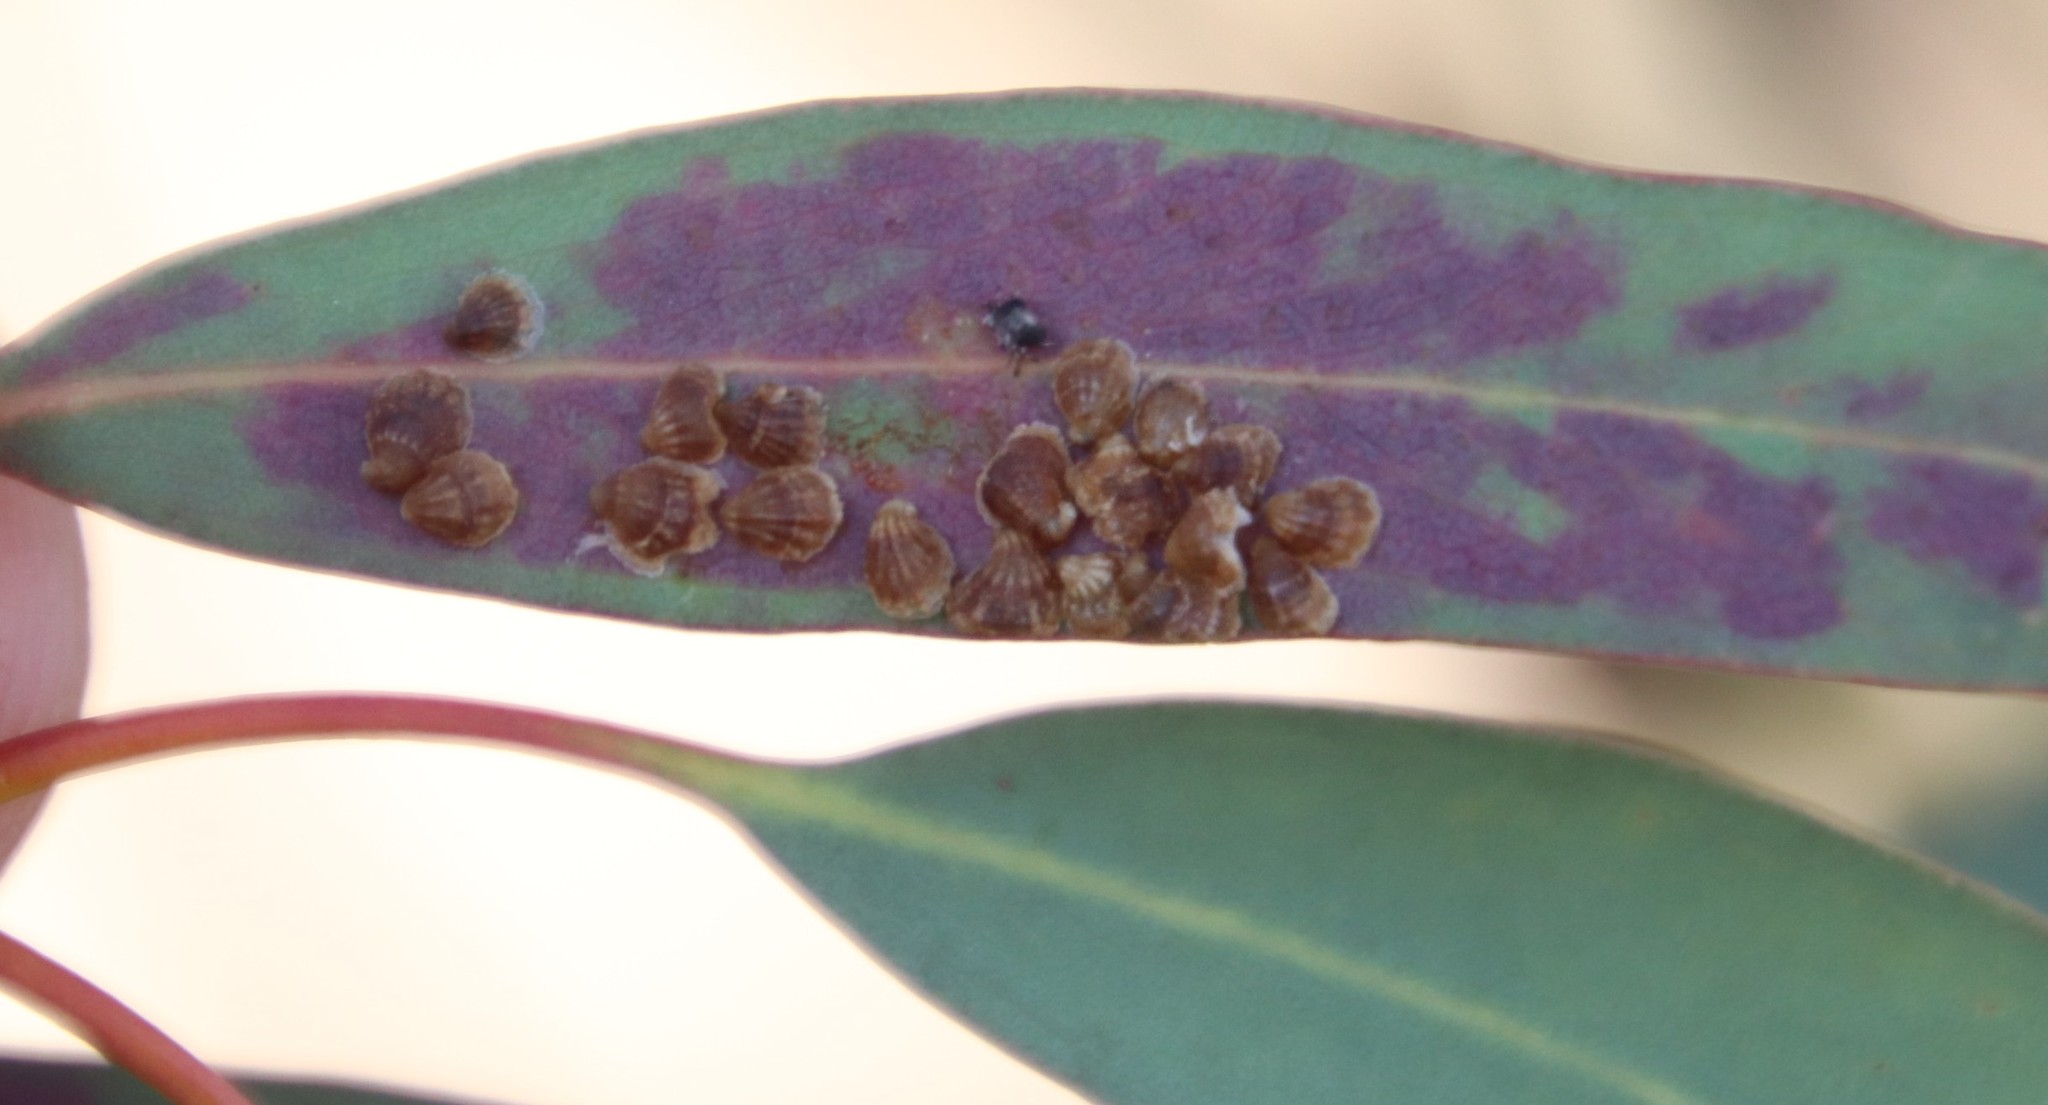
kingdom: Animalia
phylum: Arthropoda
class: Insecta
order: Hemiptera
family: Aphalaridae
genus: Spondyliaspis
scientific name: Spondyliaspis plicatuloides
